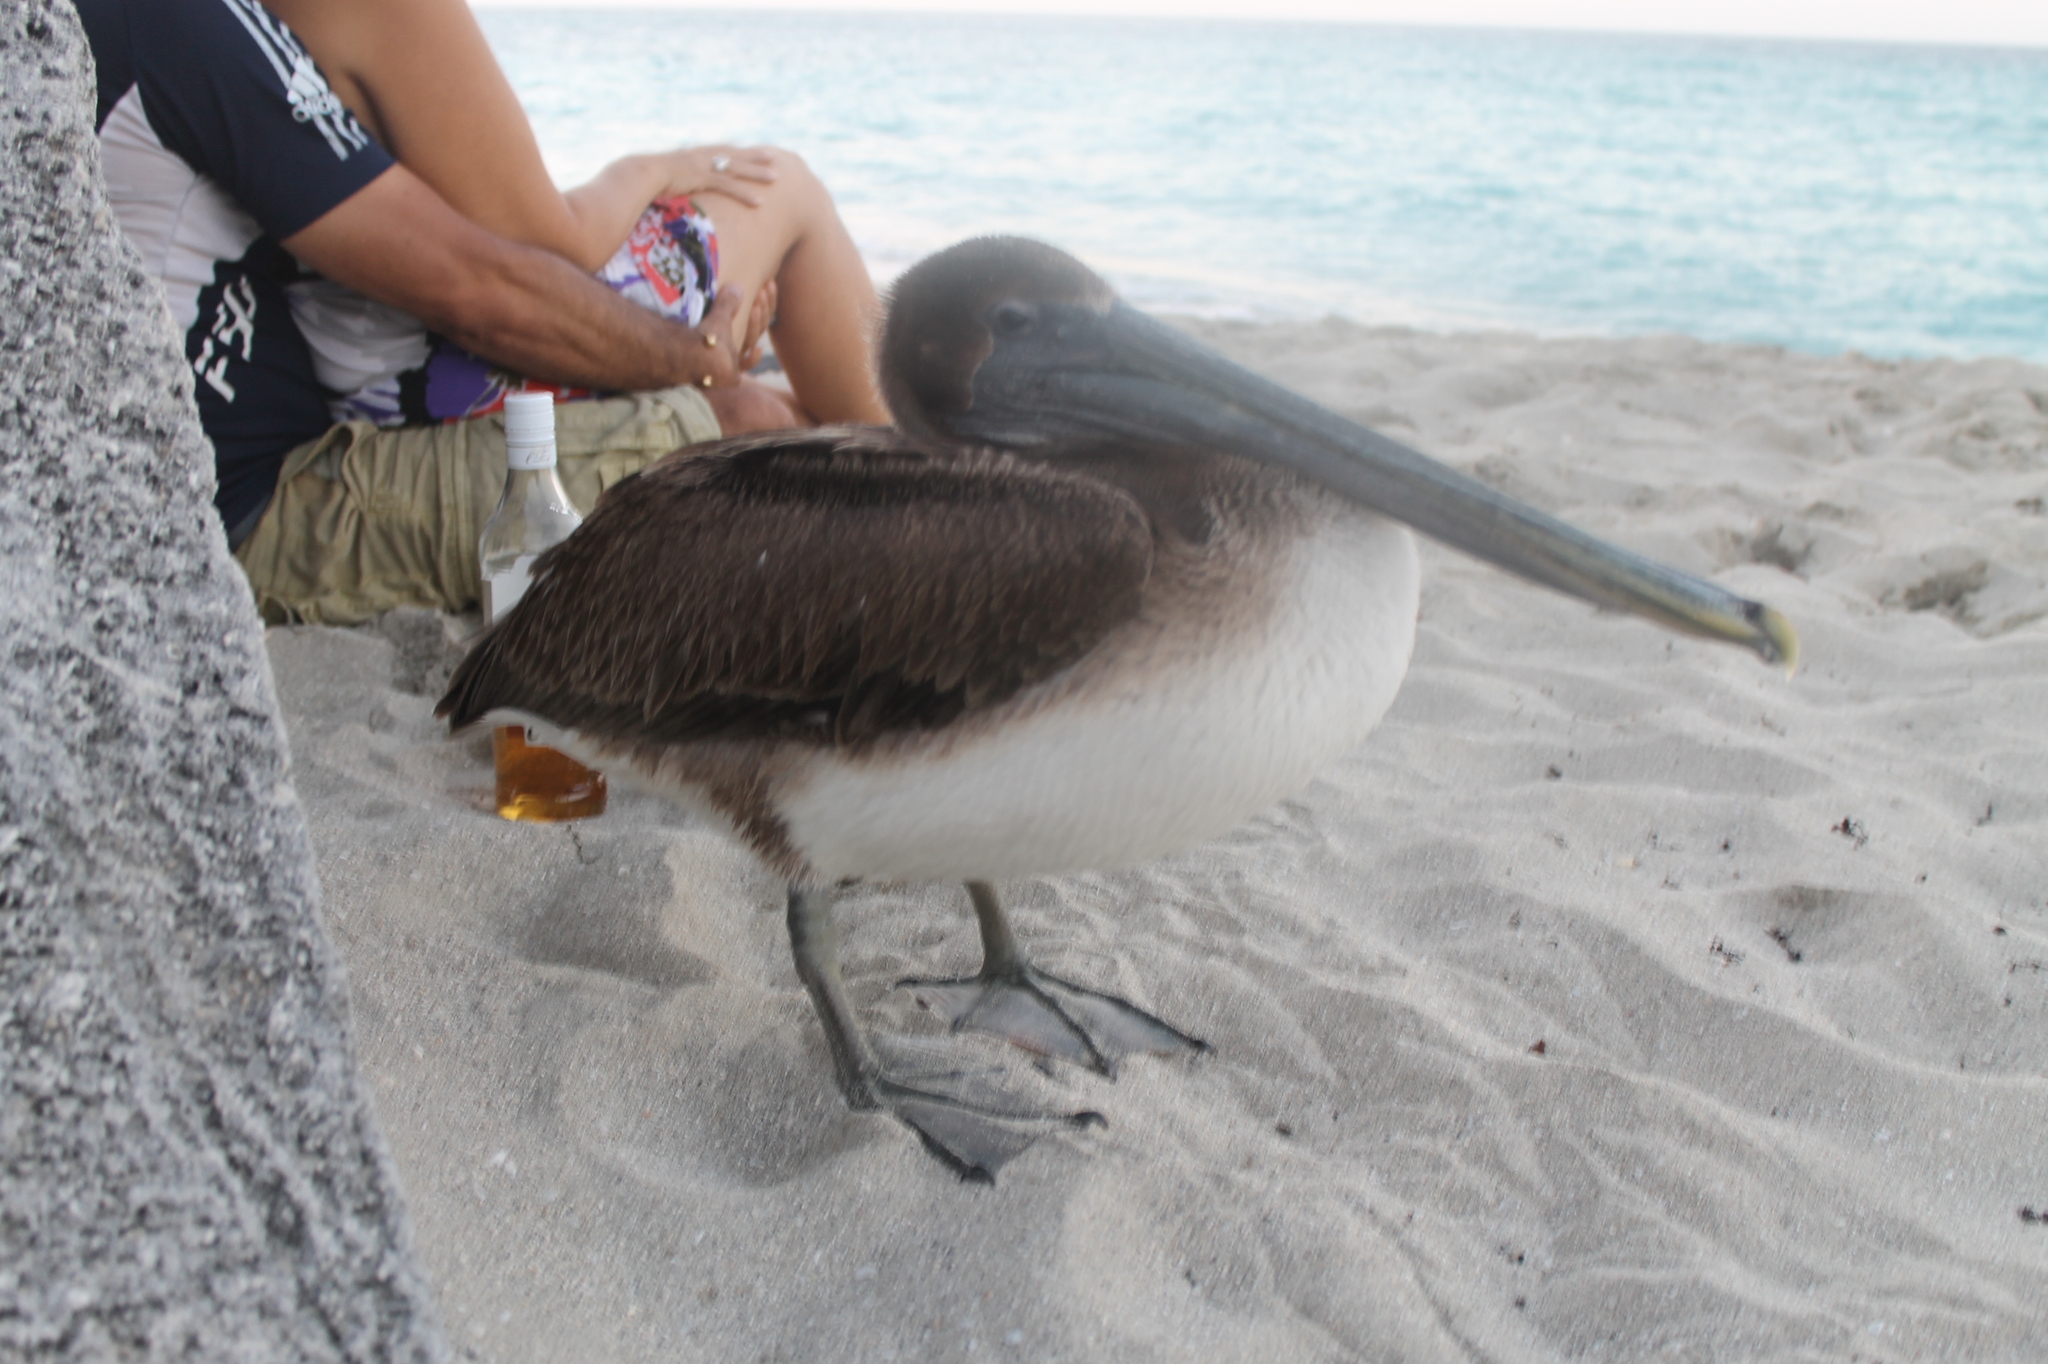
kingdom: Animalia
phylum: Chordata
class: Aves
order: Pelecaniformes
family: Pelecanidae
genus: Pelecanus
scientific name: Pelecanus occidentalis
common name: Brown pelican
